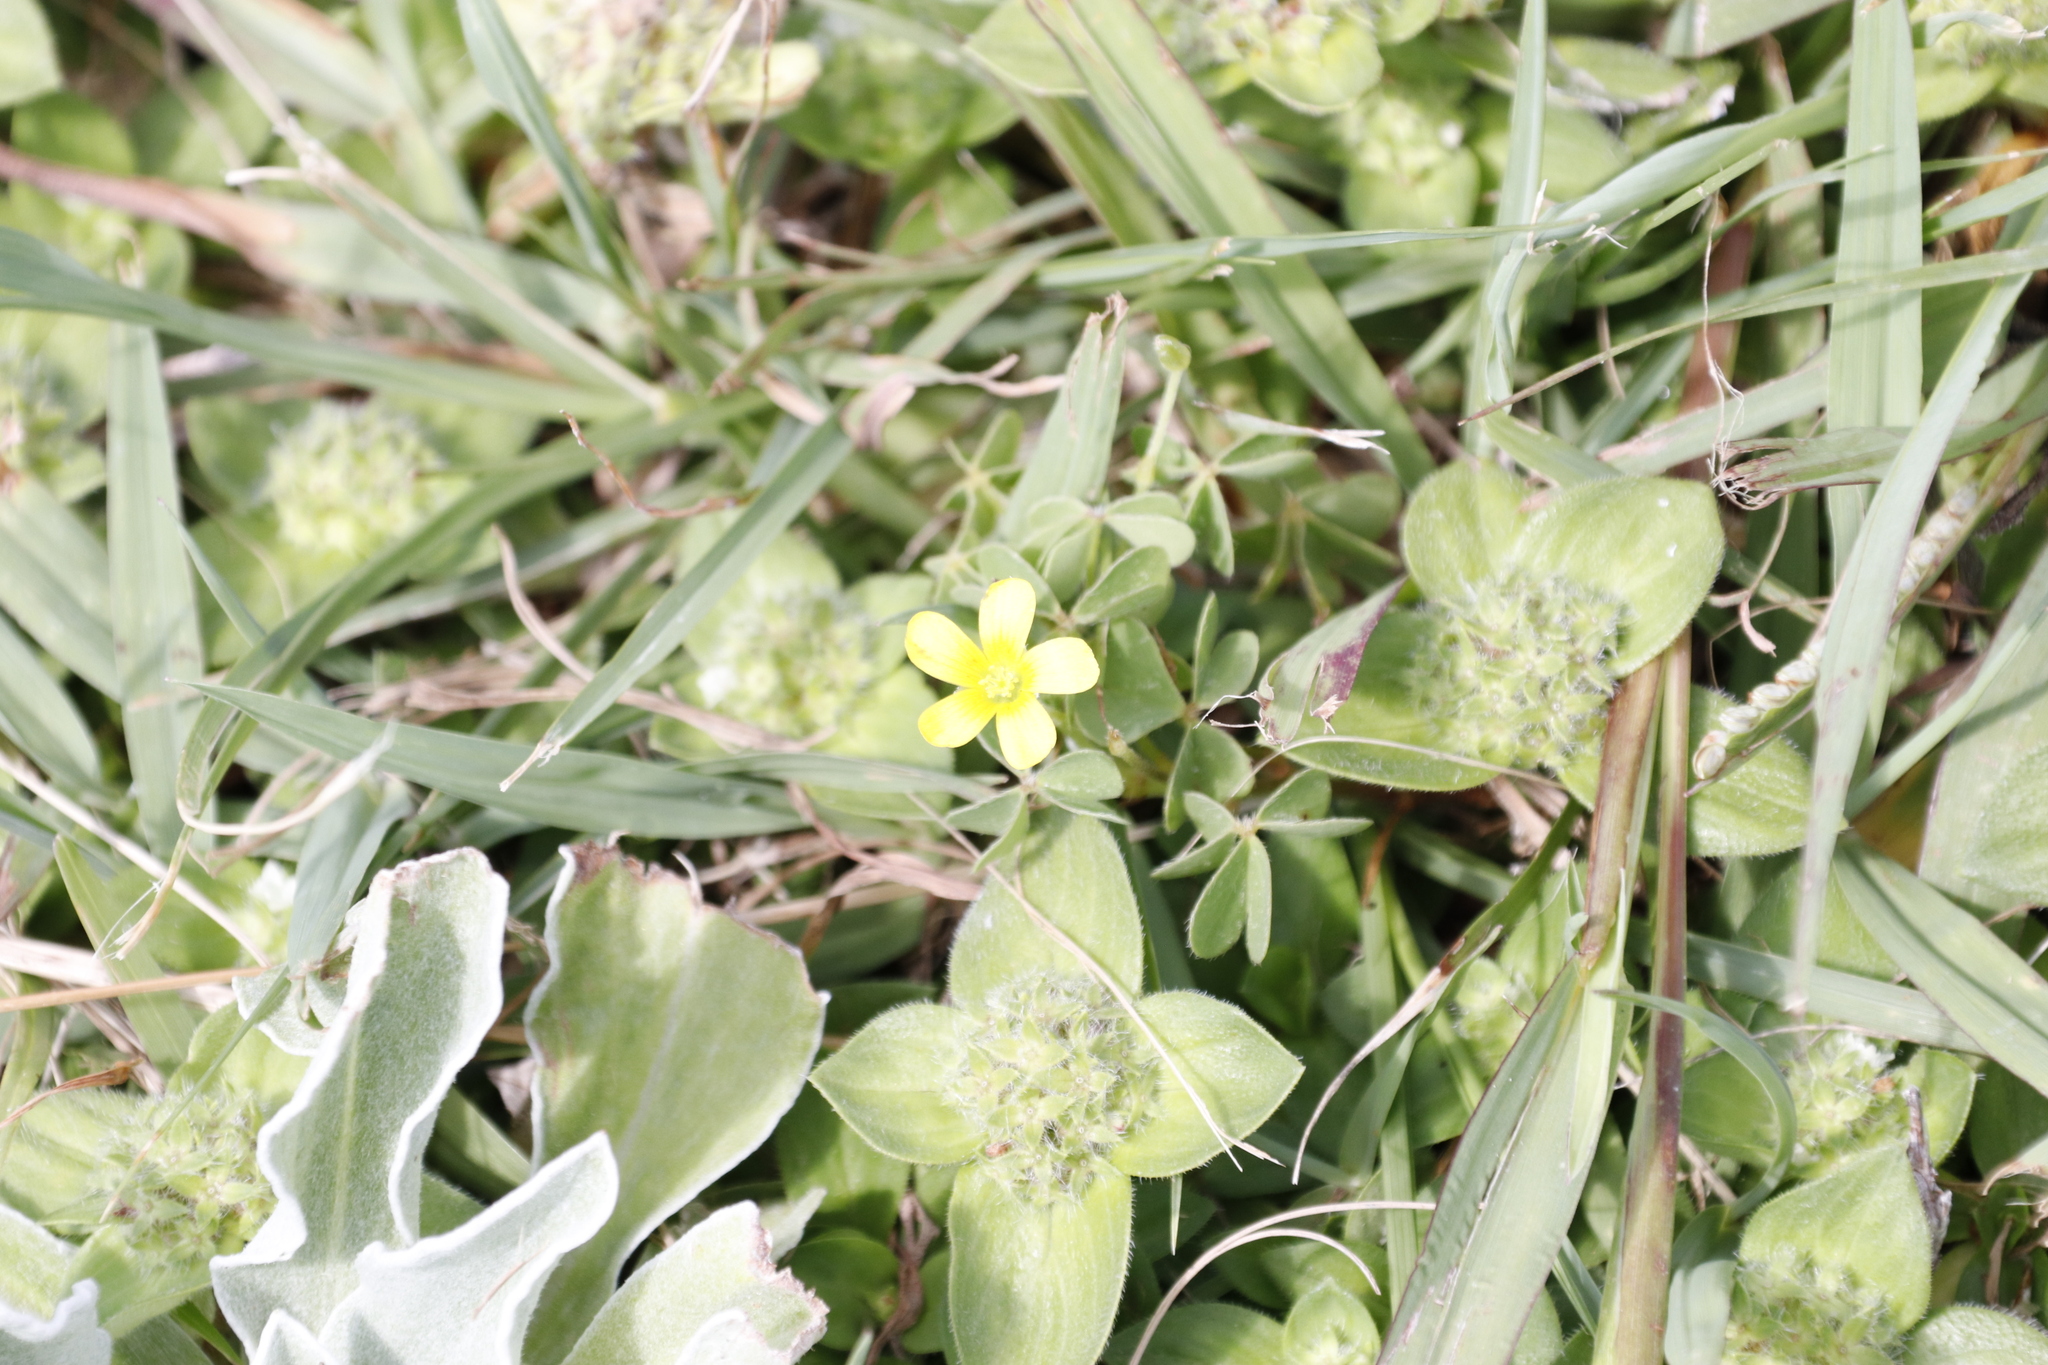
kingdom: Plantae
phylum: Tracheophyta
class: Magnoliopsida
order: Oxalidales
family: Oxalidaceae
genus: Oxalis
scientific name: Oxalis corniculata
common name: Procumbent yellow-sorrel
